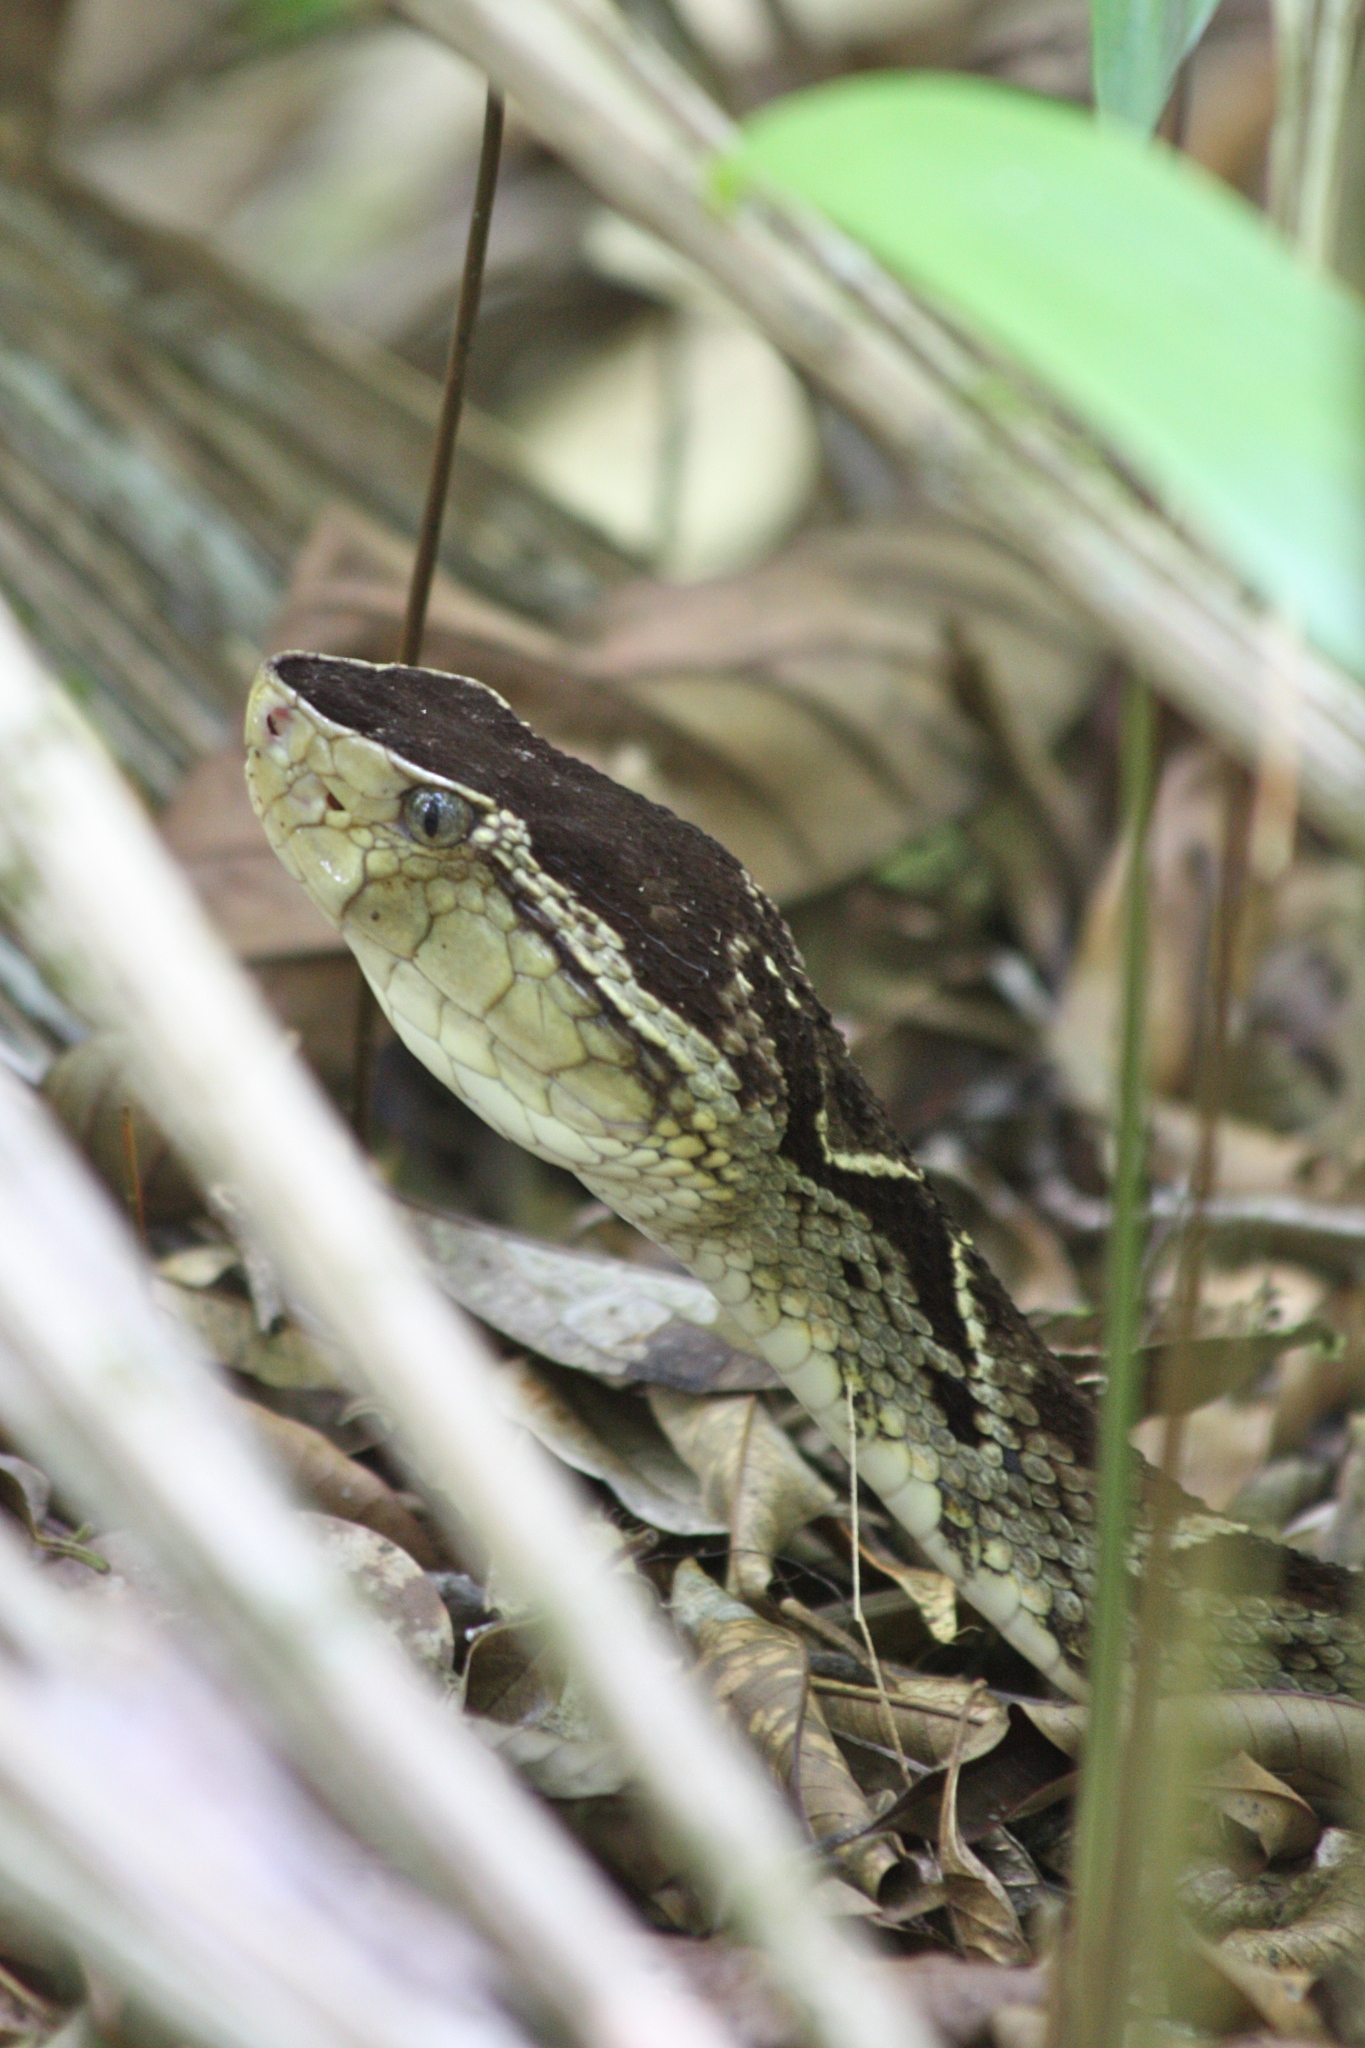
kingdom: Animalia
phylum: Chordata
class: Squamata
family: Viperidae
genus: Bothrops
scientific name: Bothrops asper
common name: Terciopelo
